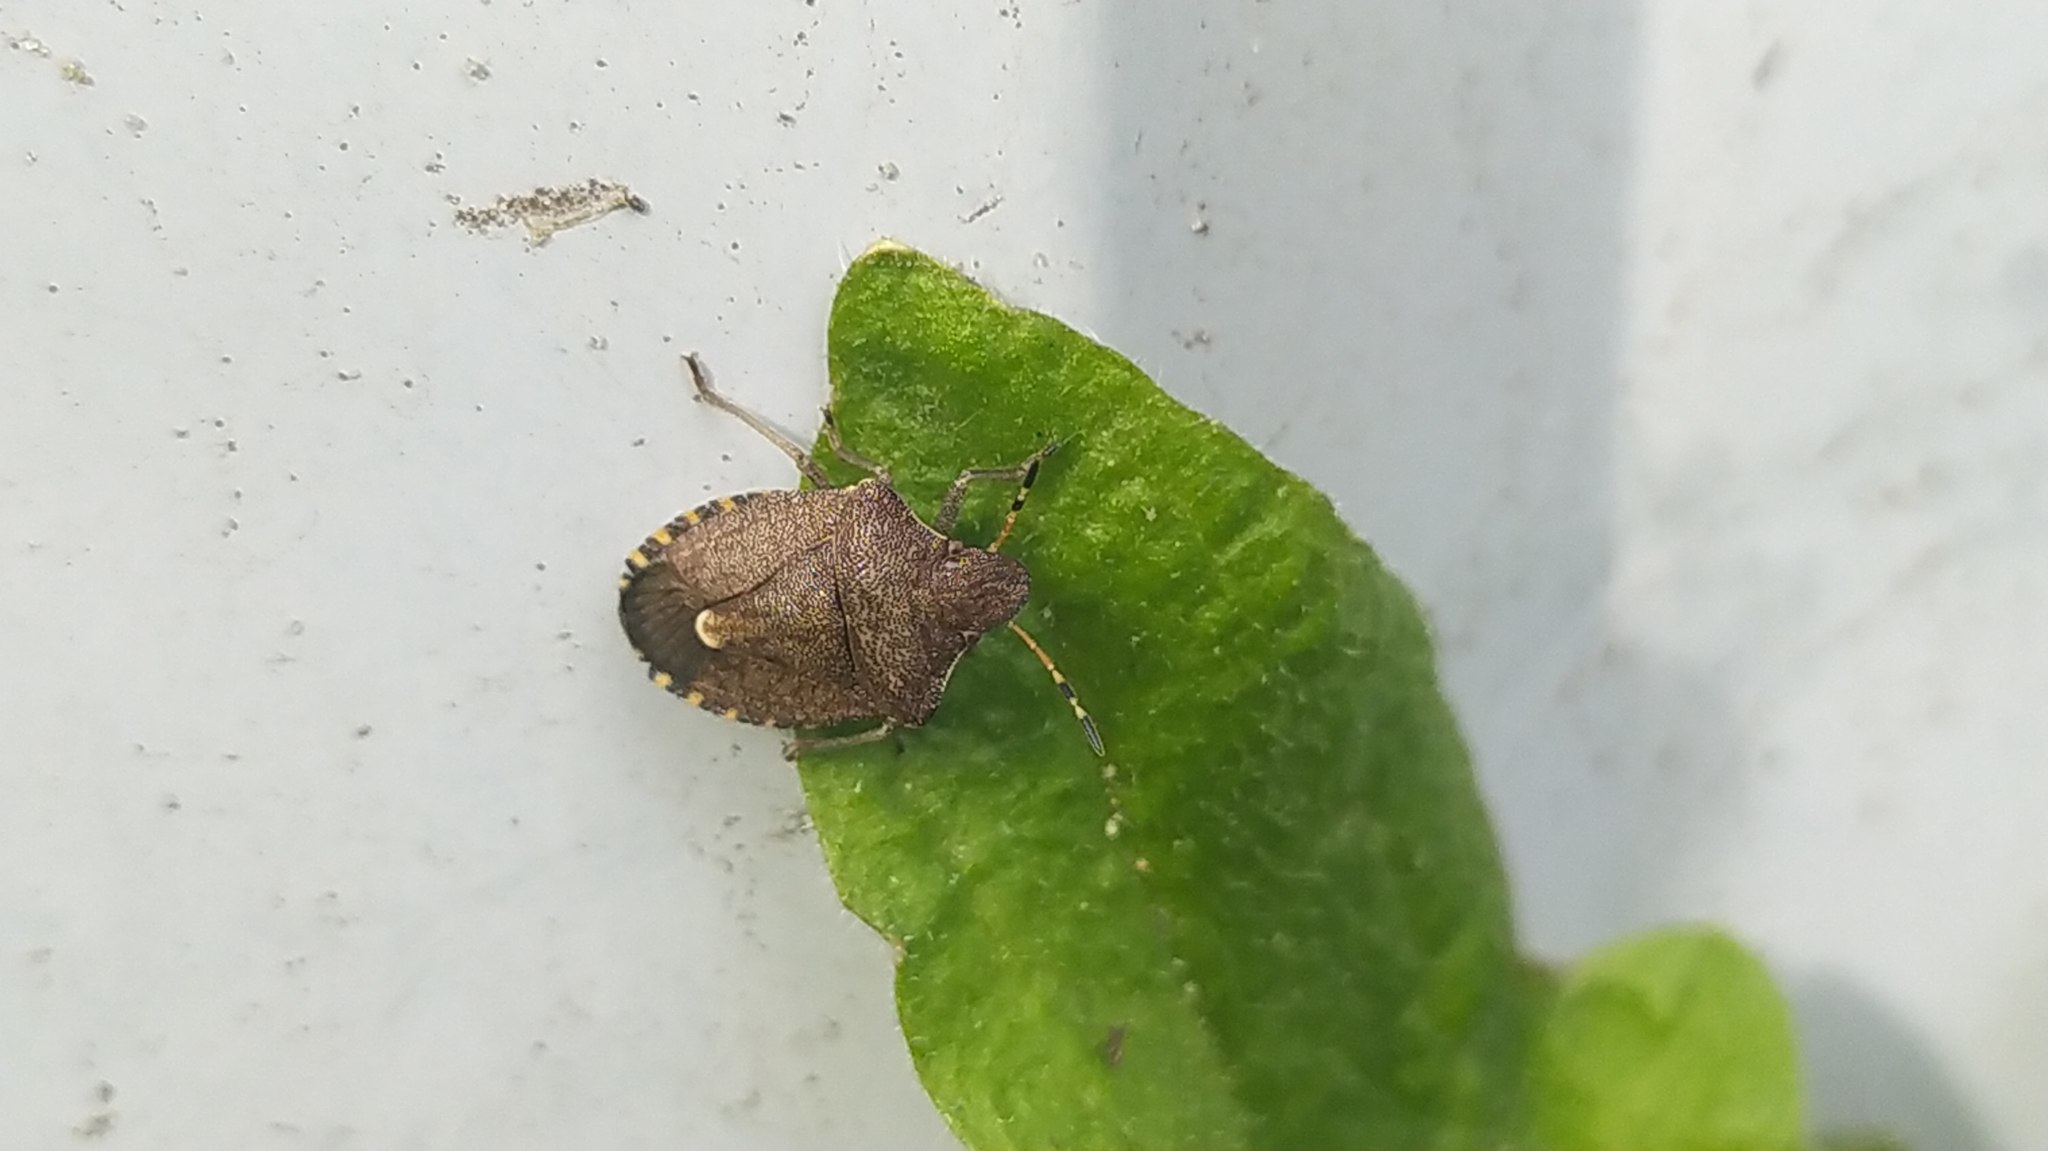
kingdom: Animalia
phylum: Arthropoda
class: Insecta
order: Hemiptera
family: Pentatomidae
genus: Holcostethus
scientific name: Holcostethus strictus
